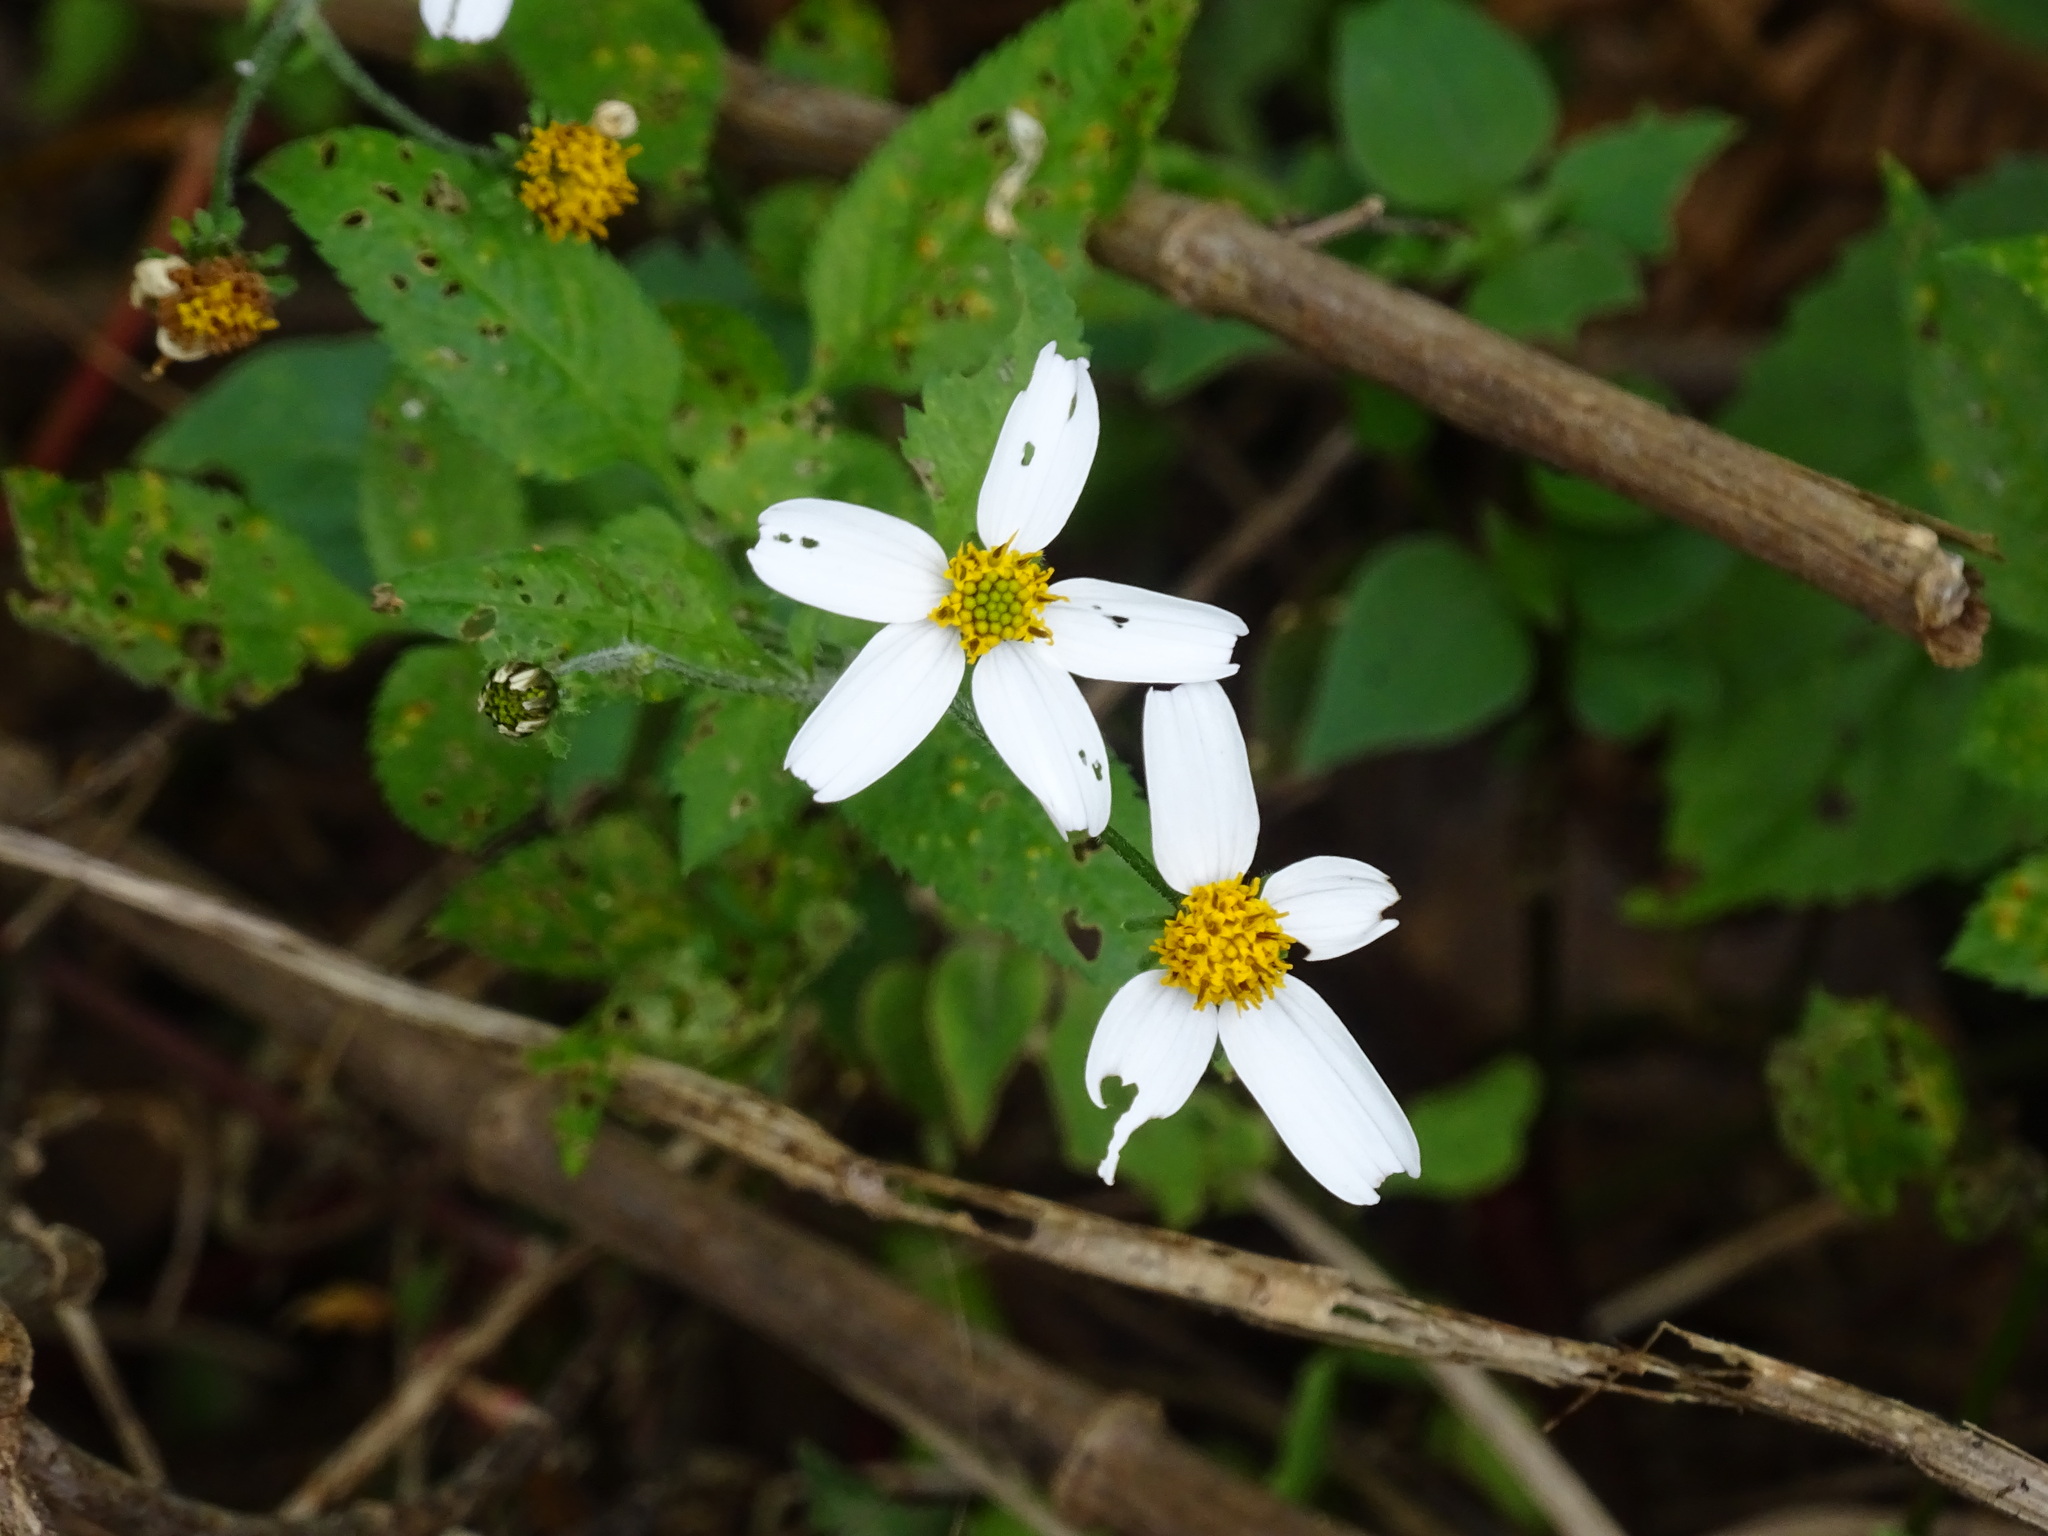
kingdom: Plantae
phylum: Tracheophyta
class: Magnoliopsida
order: Asterales
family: Asteraceae
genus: Bidens
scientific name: Bidens alba
